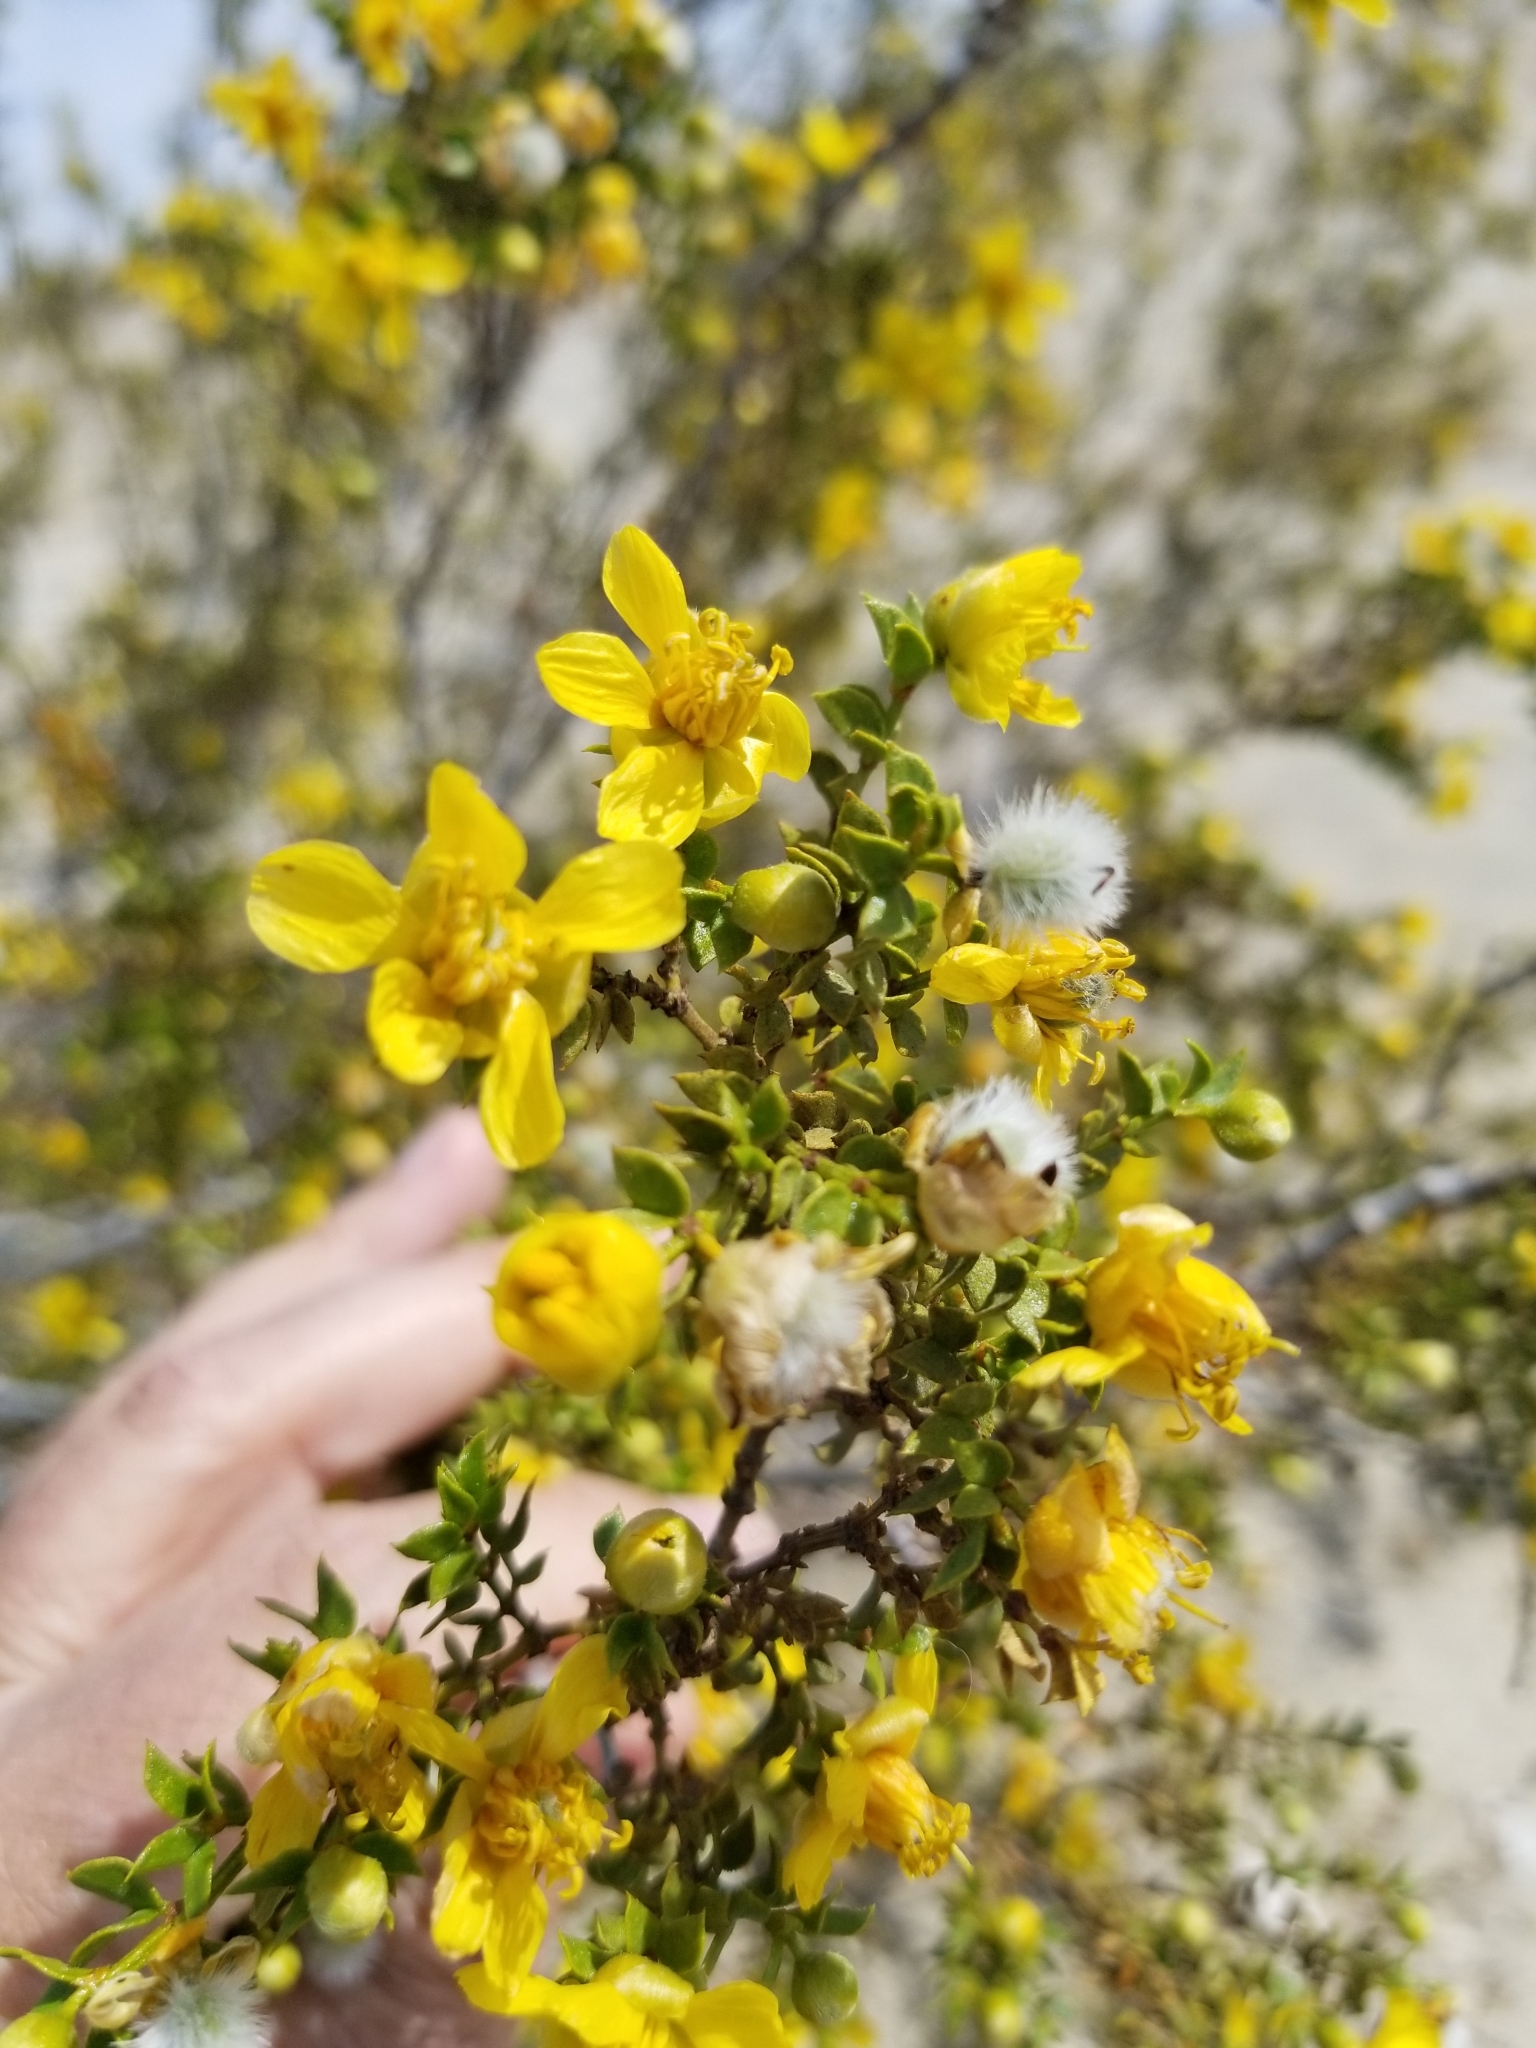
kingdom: Plantae
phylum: Tracheophyta
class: Magnoliopsida
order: Zygophyllales
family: Zygophyllaceae
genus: Larrea
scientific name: Larrea tridentata
